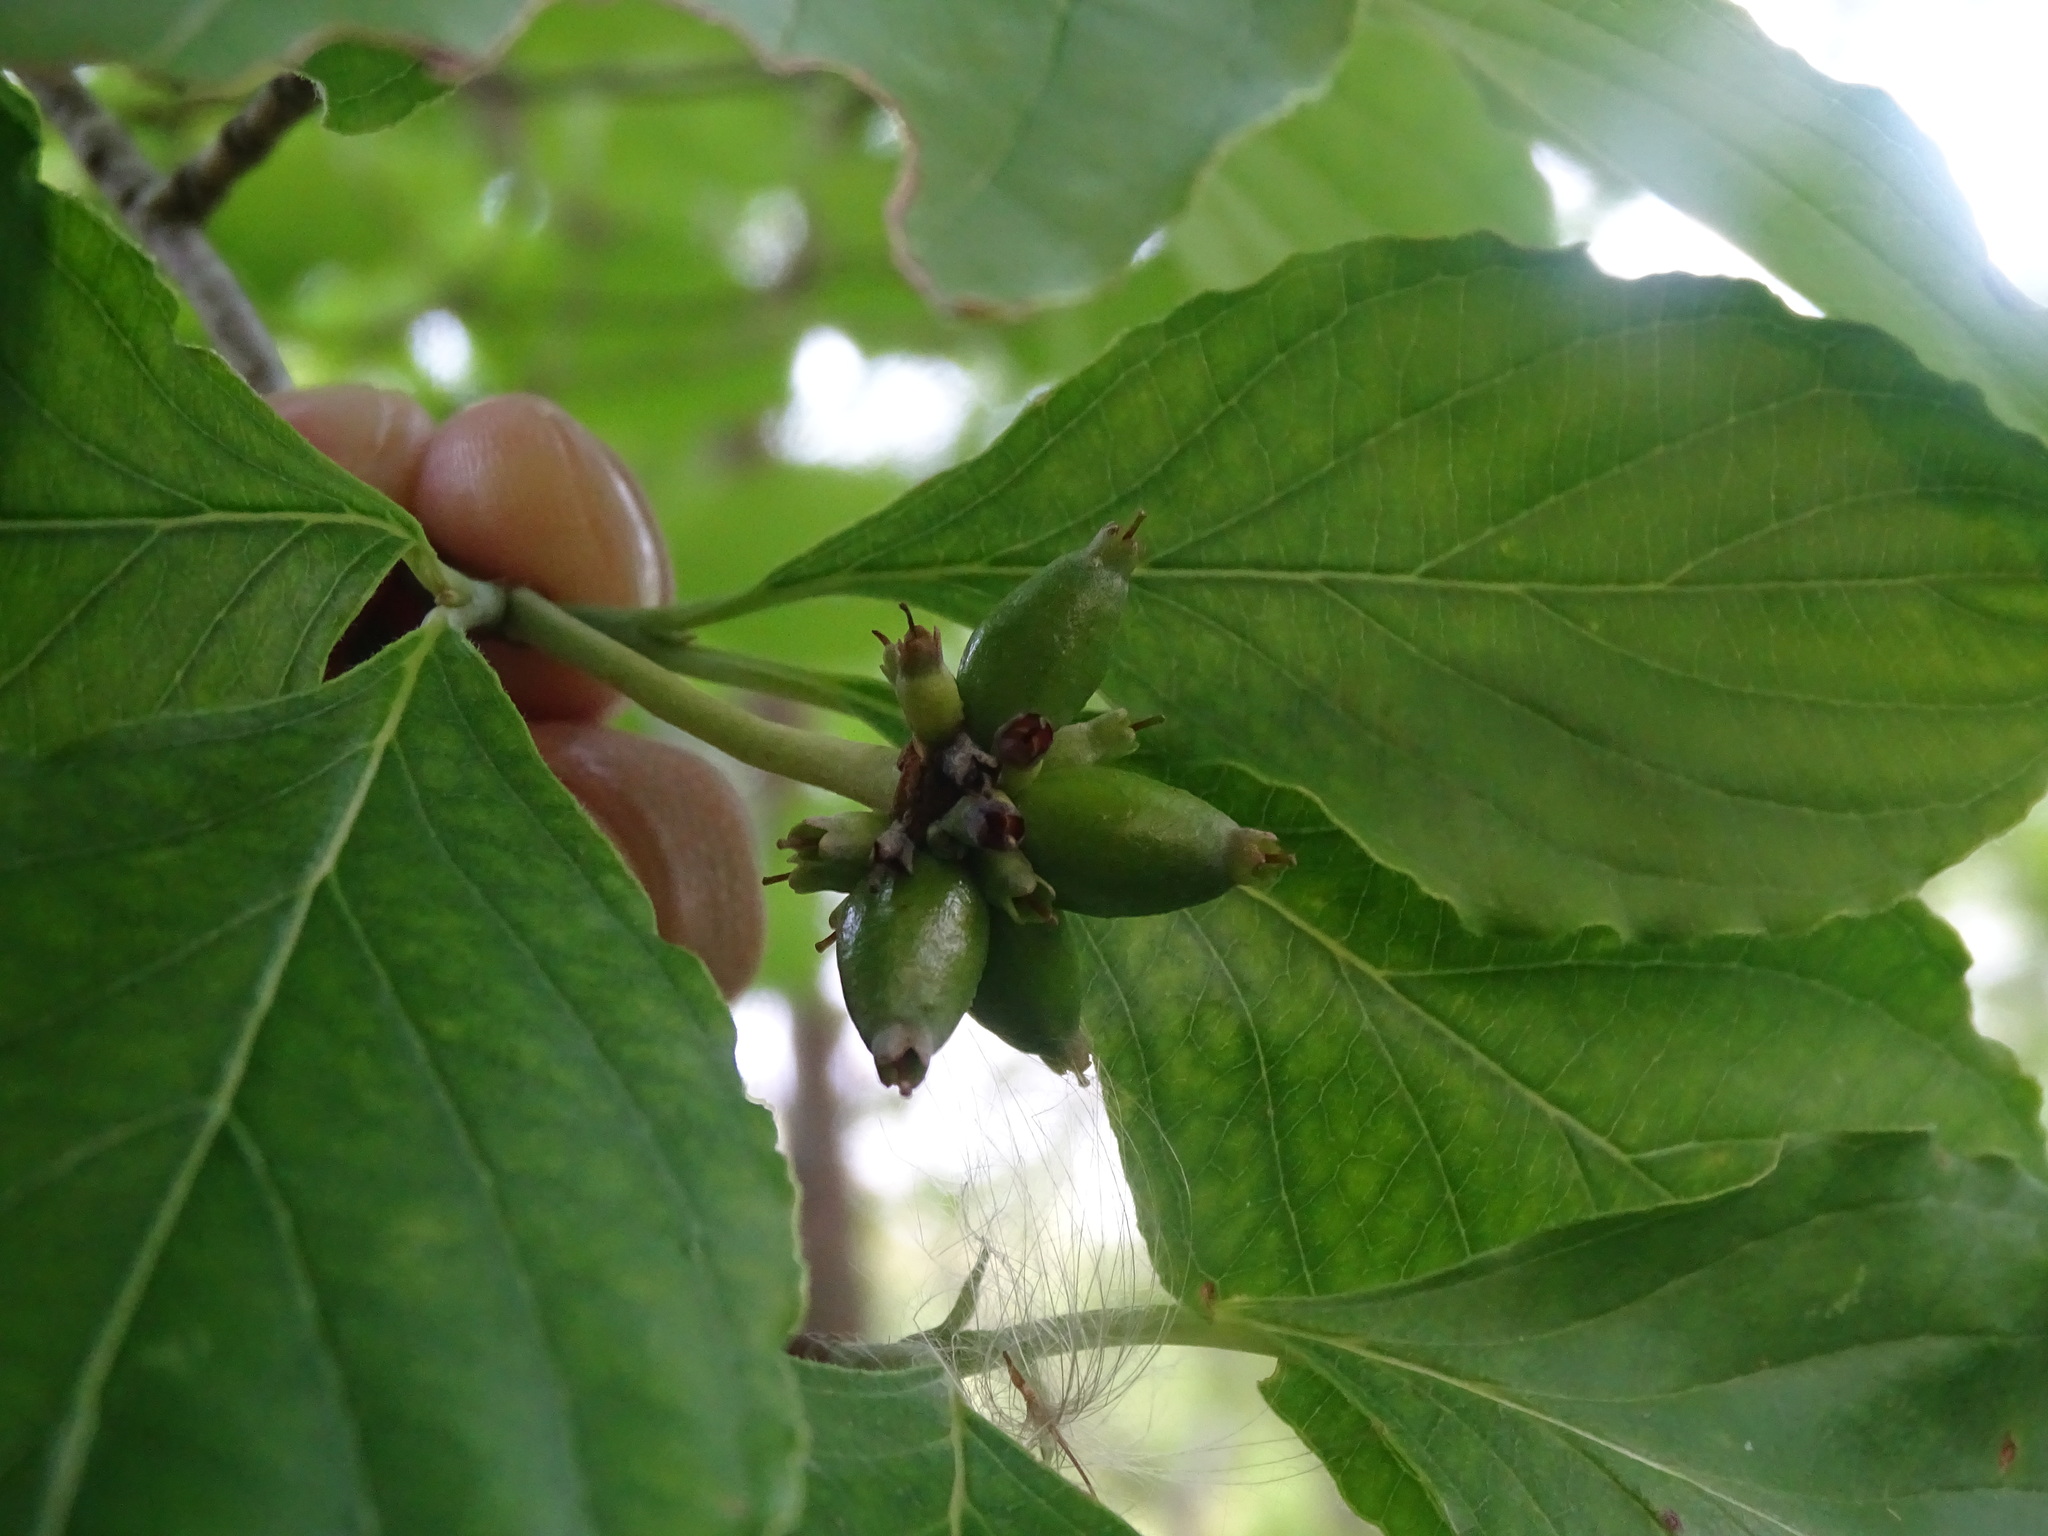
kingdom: Plantae
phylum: Tracheophyta
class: Magnoliopsida
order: Cornales
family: Cornaceae
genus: Cornus
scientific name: Cornus florida
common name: Flowering dogwood
